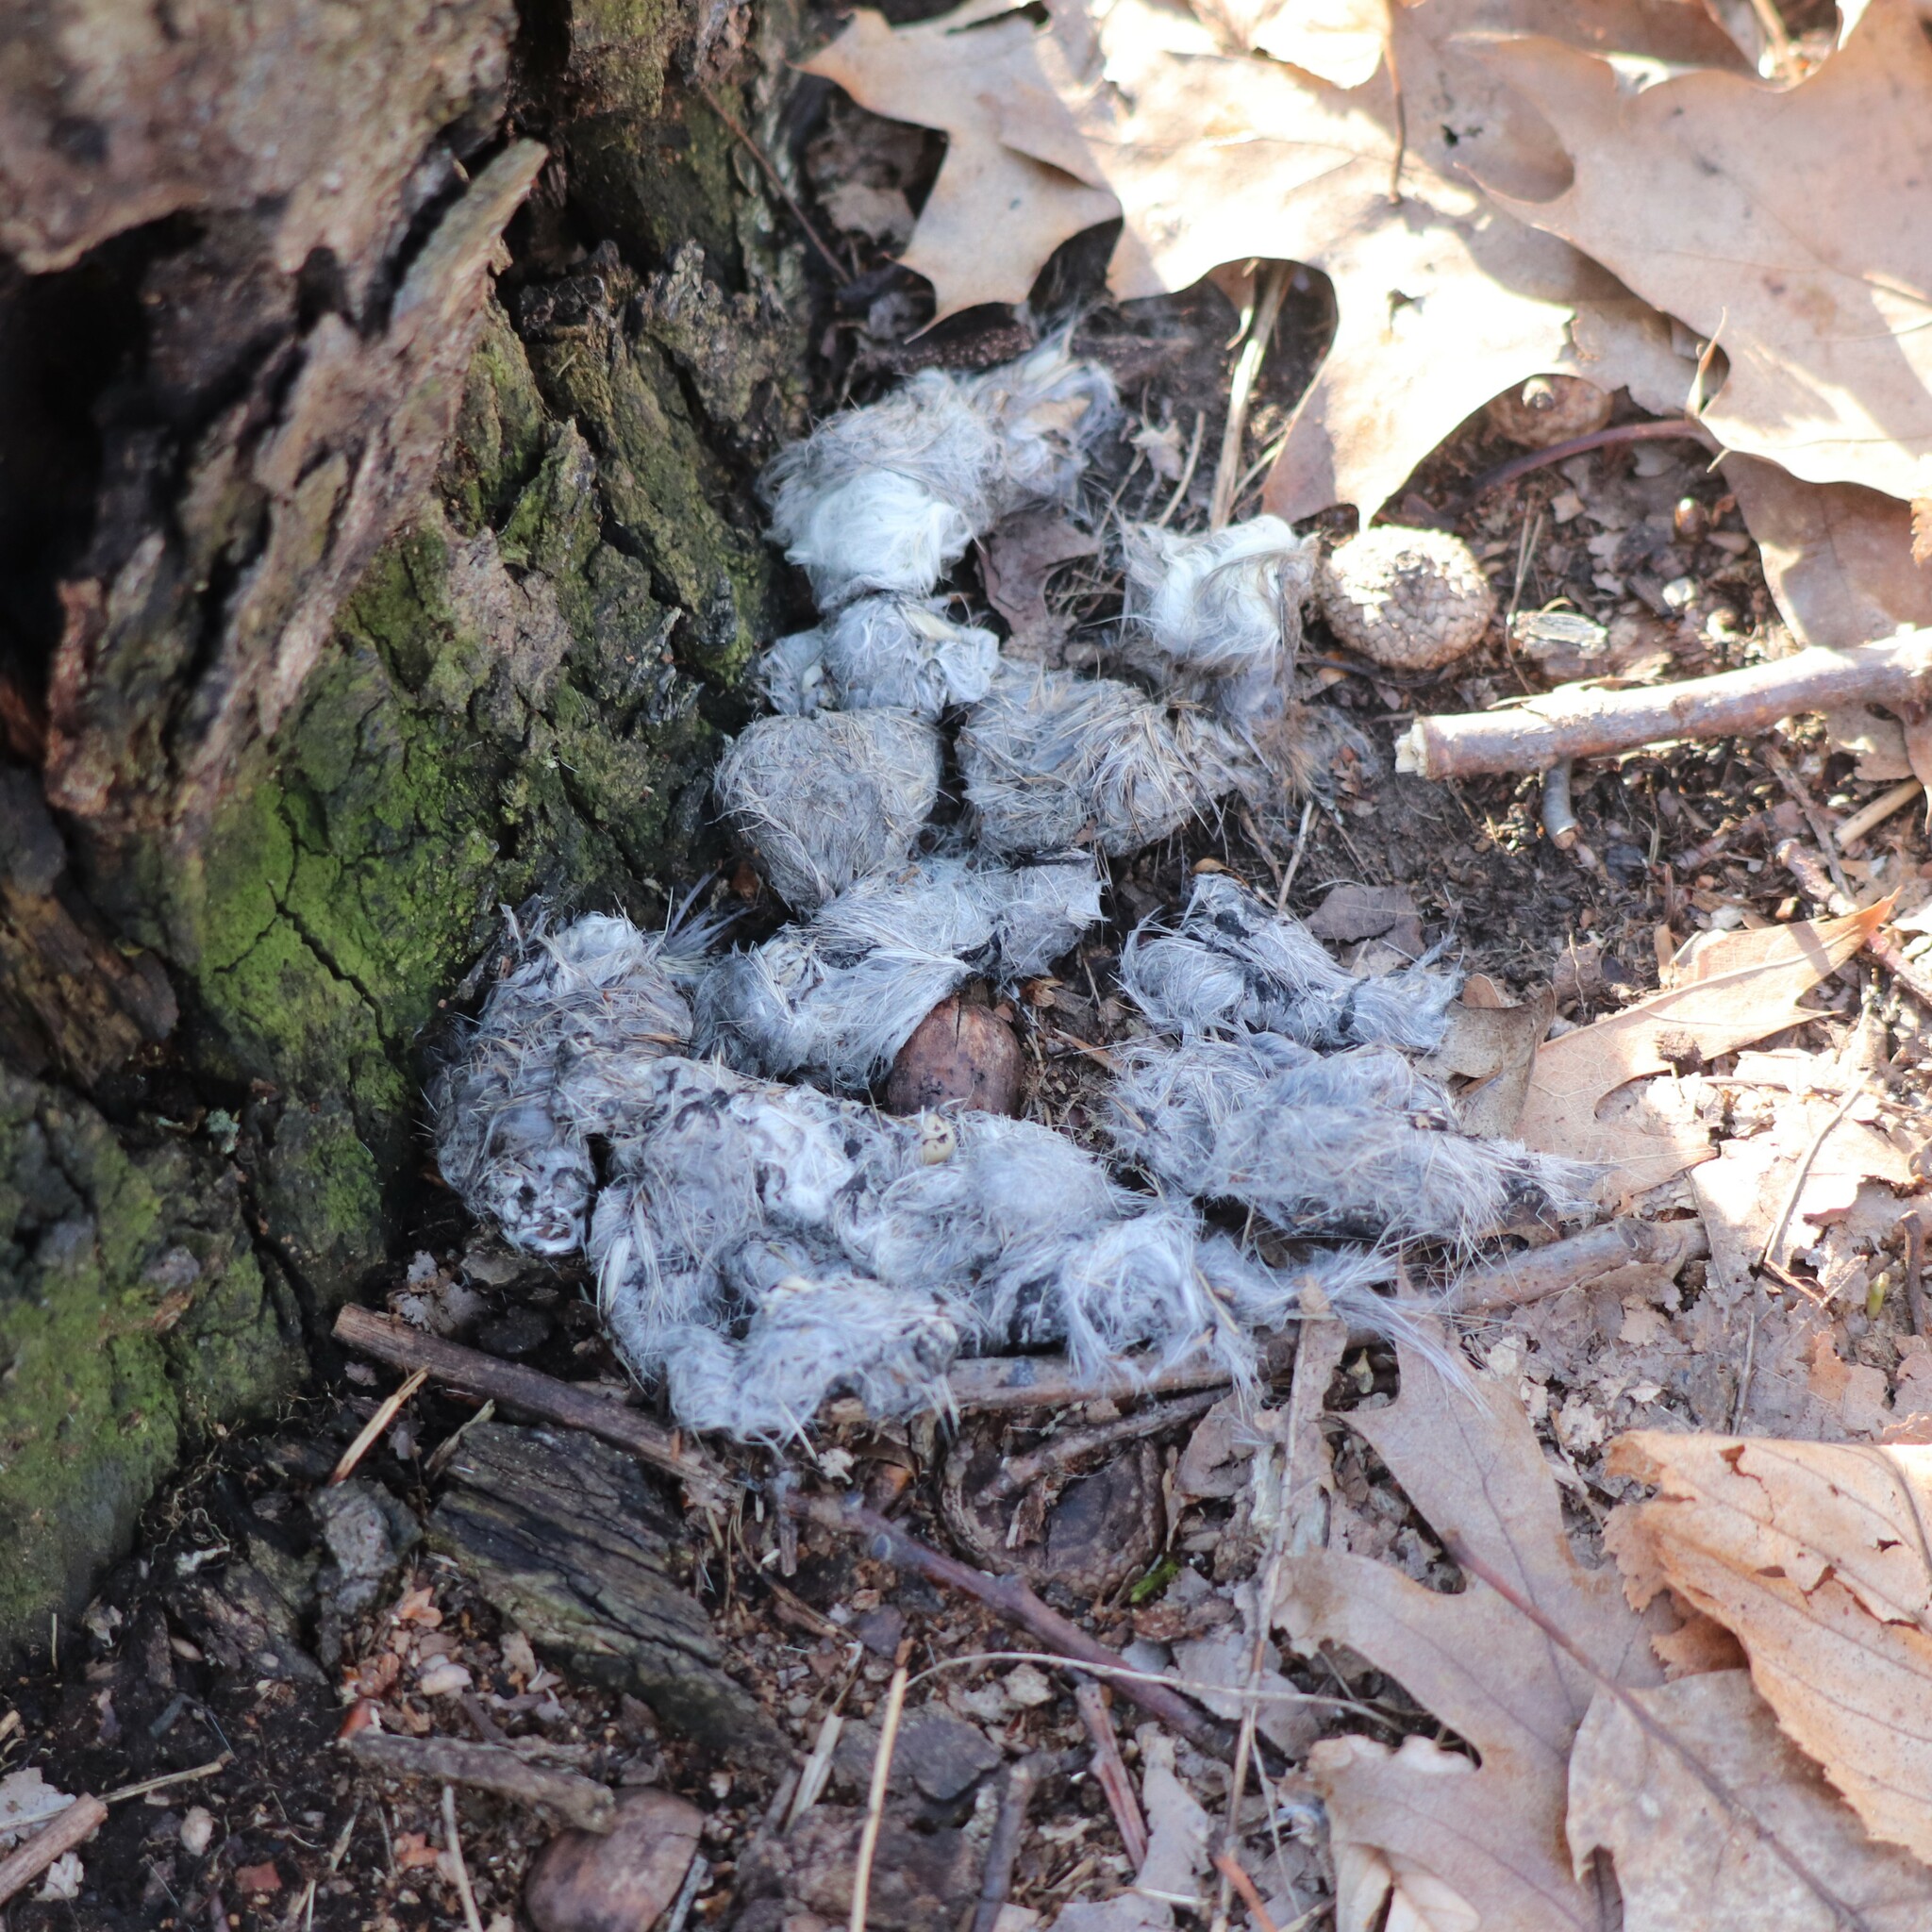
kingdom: Animalia
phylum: Chordata
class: Mammalia
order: Carnivora
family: Canidae
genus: Canis
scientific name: Canis latrans
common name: Coyote
